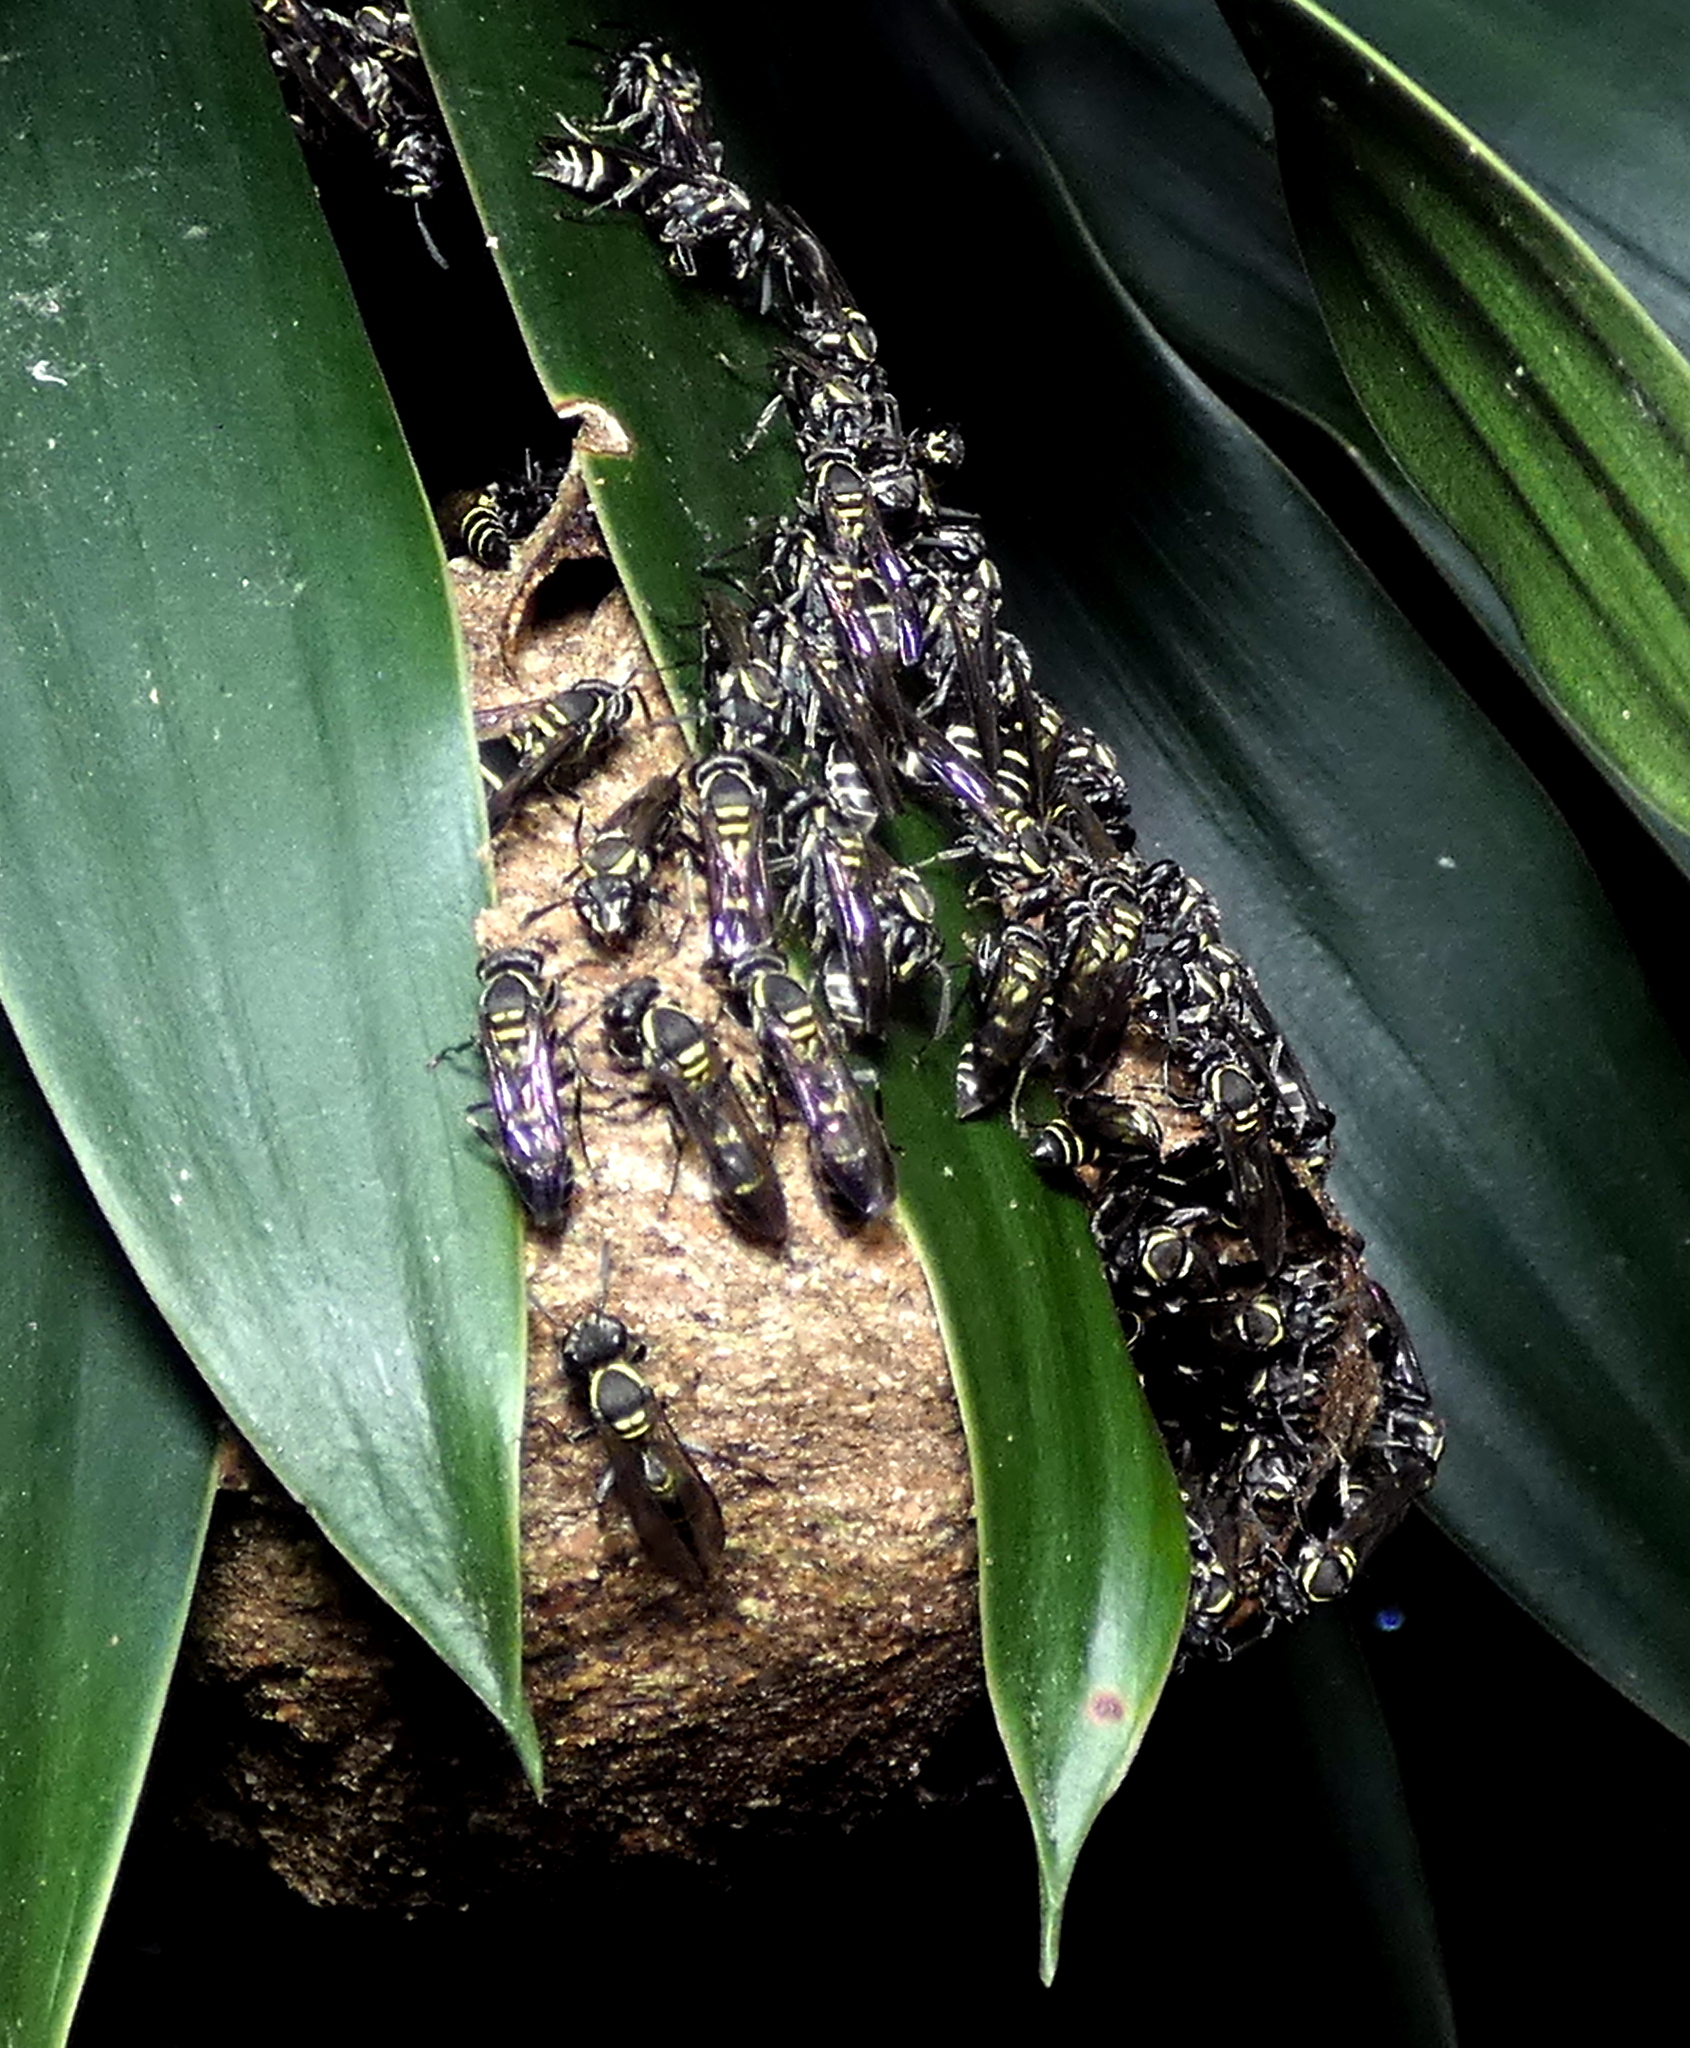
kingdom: Animalia
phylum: Arthropoda
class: Insecta
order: Hymenoptera
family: Eumenidae
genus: Polybia
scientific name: Polybia occidentalis
